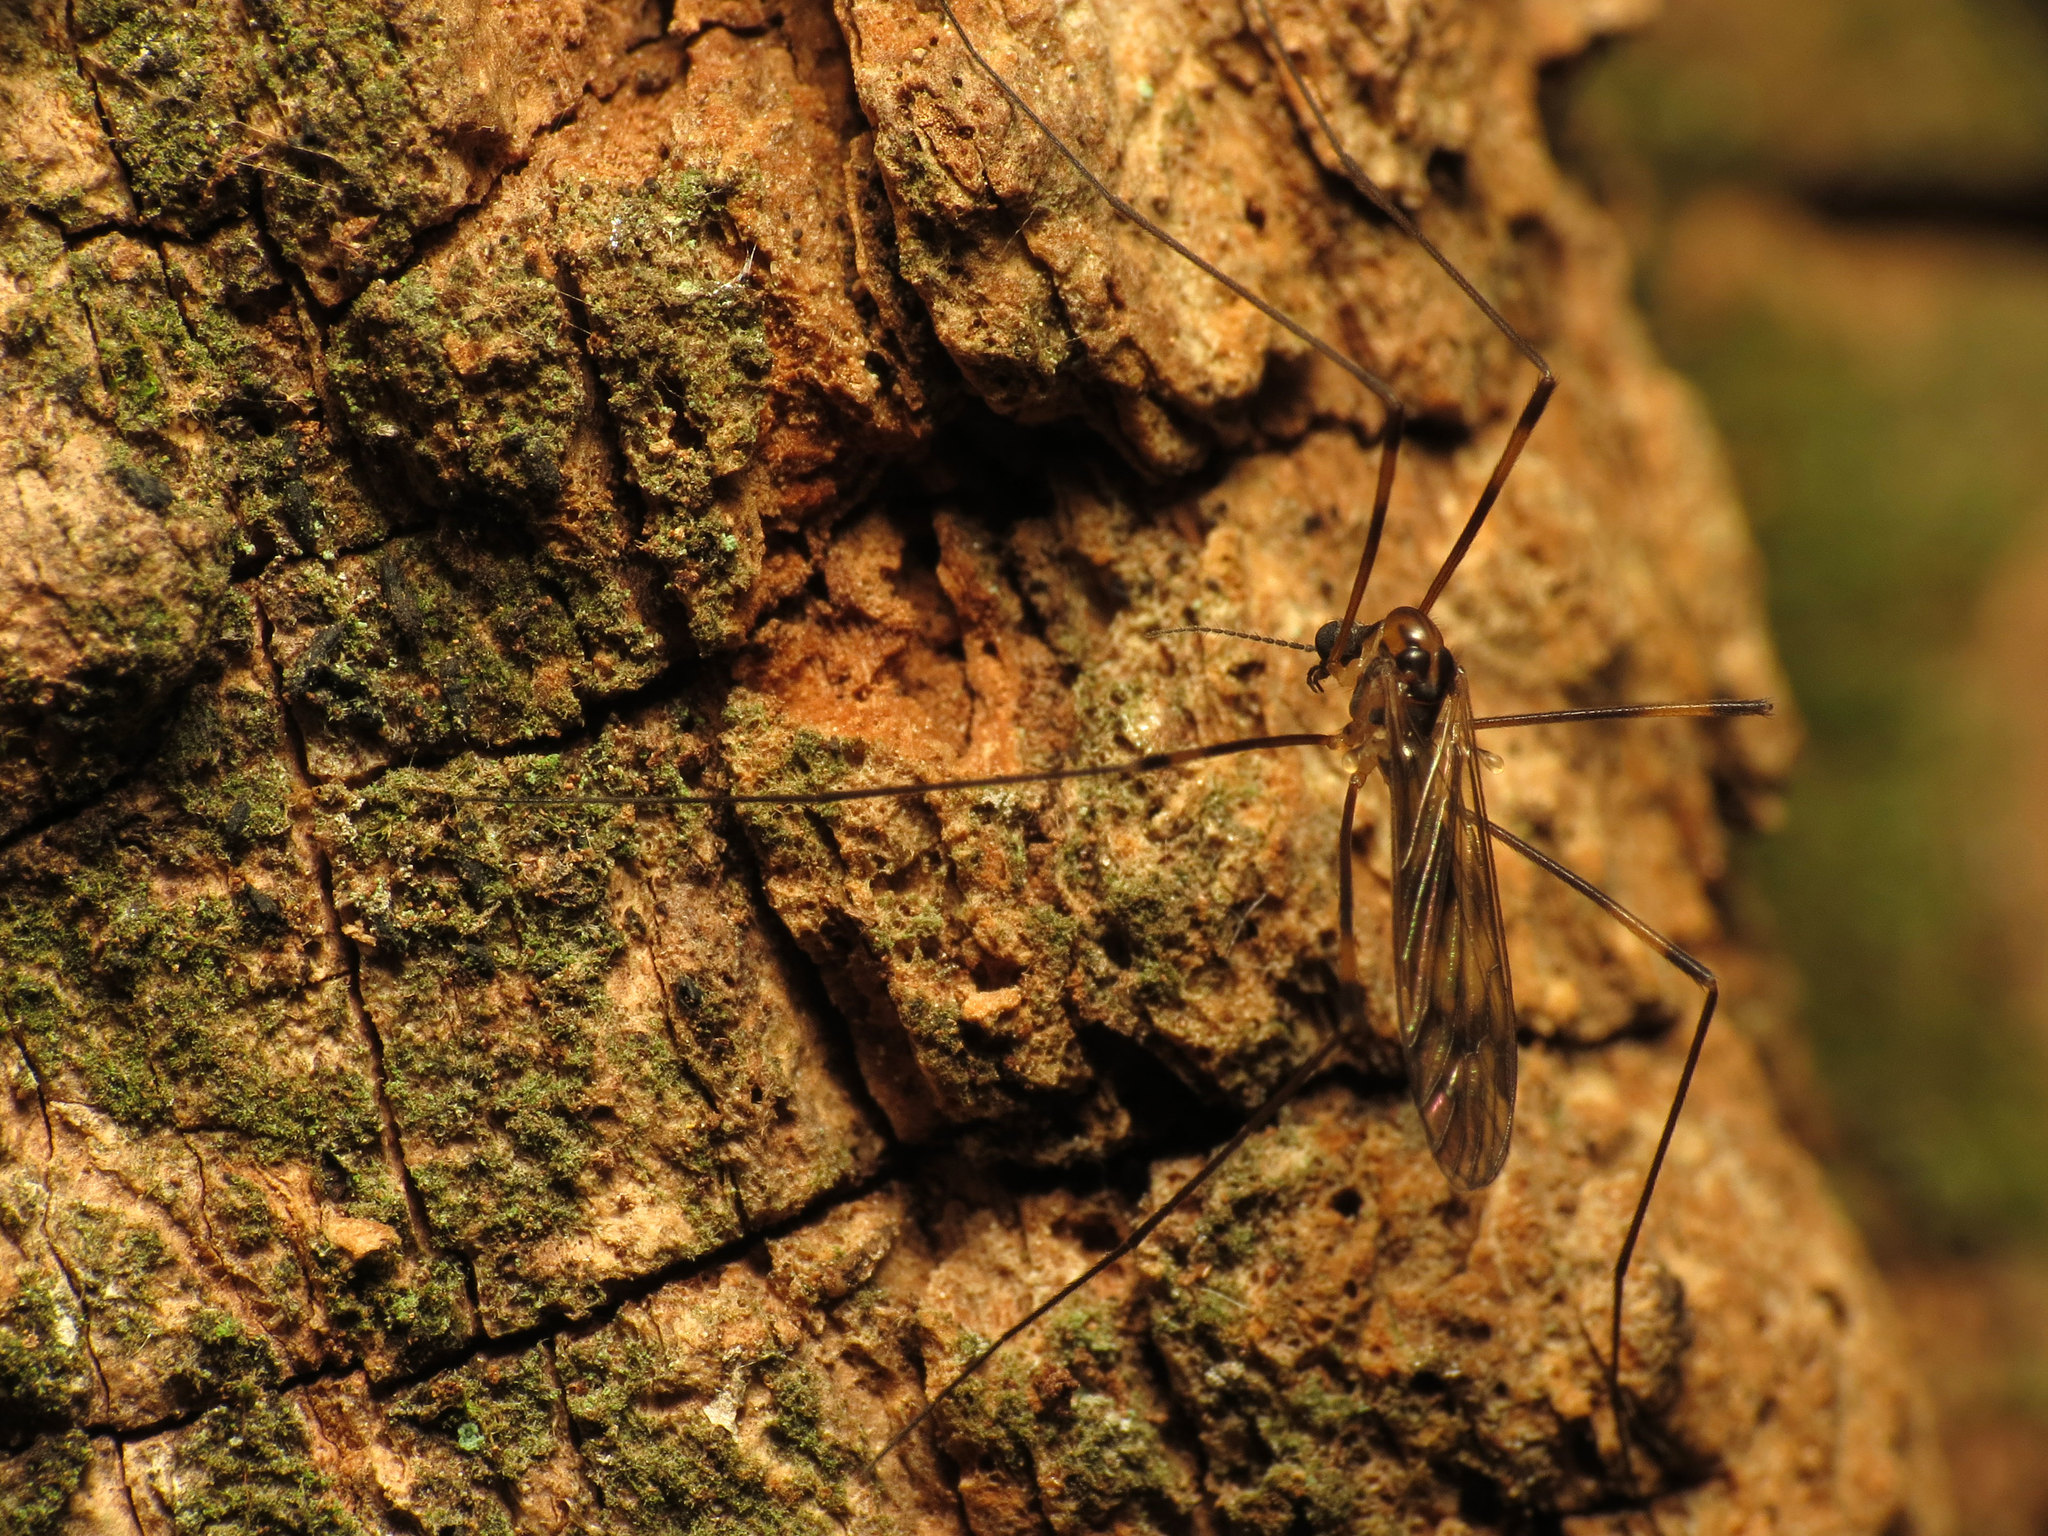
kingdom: Animalia
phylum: Arthropoda
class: Insecta
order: Diptera
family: Limoniidae
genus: Limonia
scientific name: Limonia indigena
